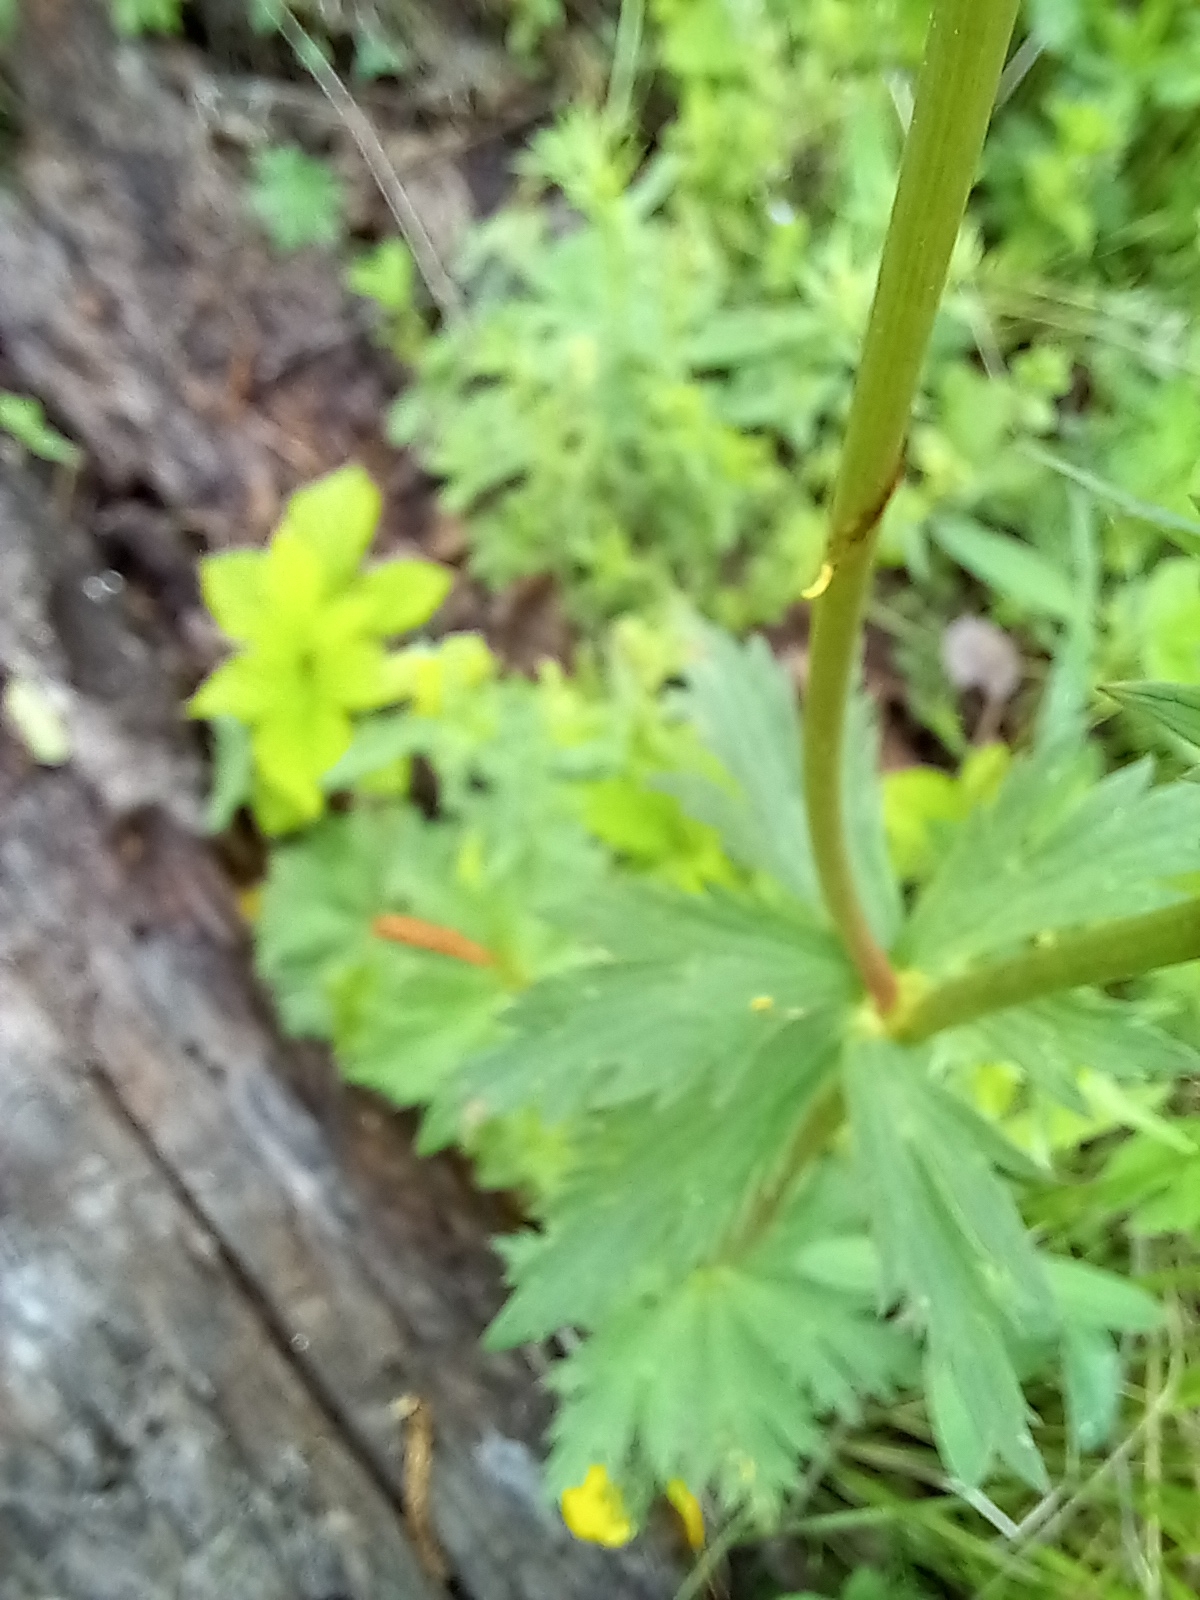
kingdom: Plantae
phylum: Tracheophyta
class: Magnoliopsida
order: Ranunculales
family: Ranunculaceae
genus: Trollius
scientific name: Trollius europaeus
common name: European globeflower
